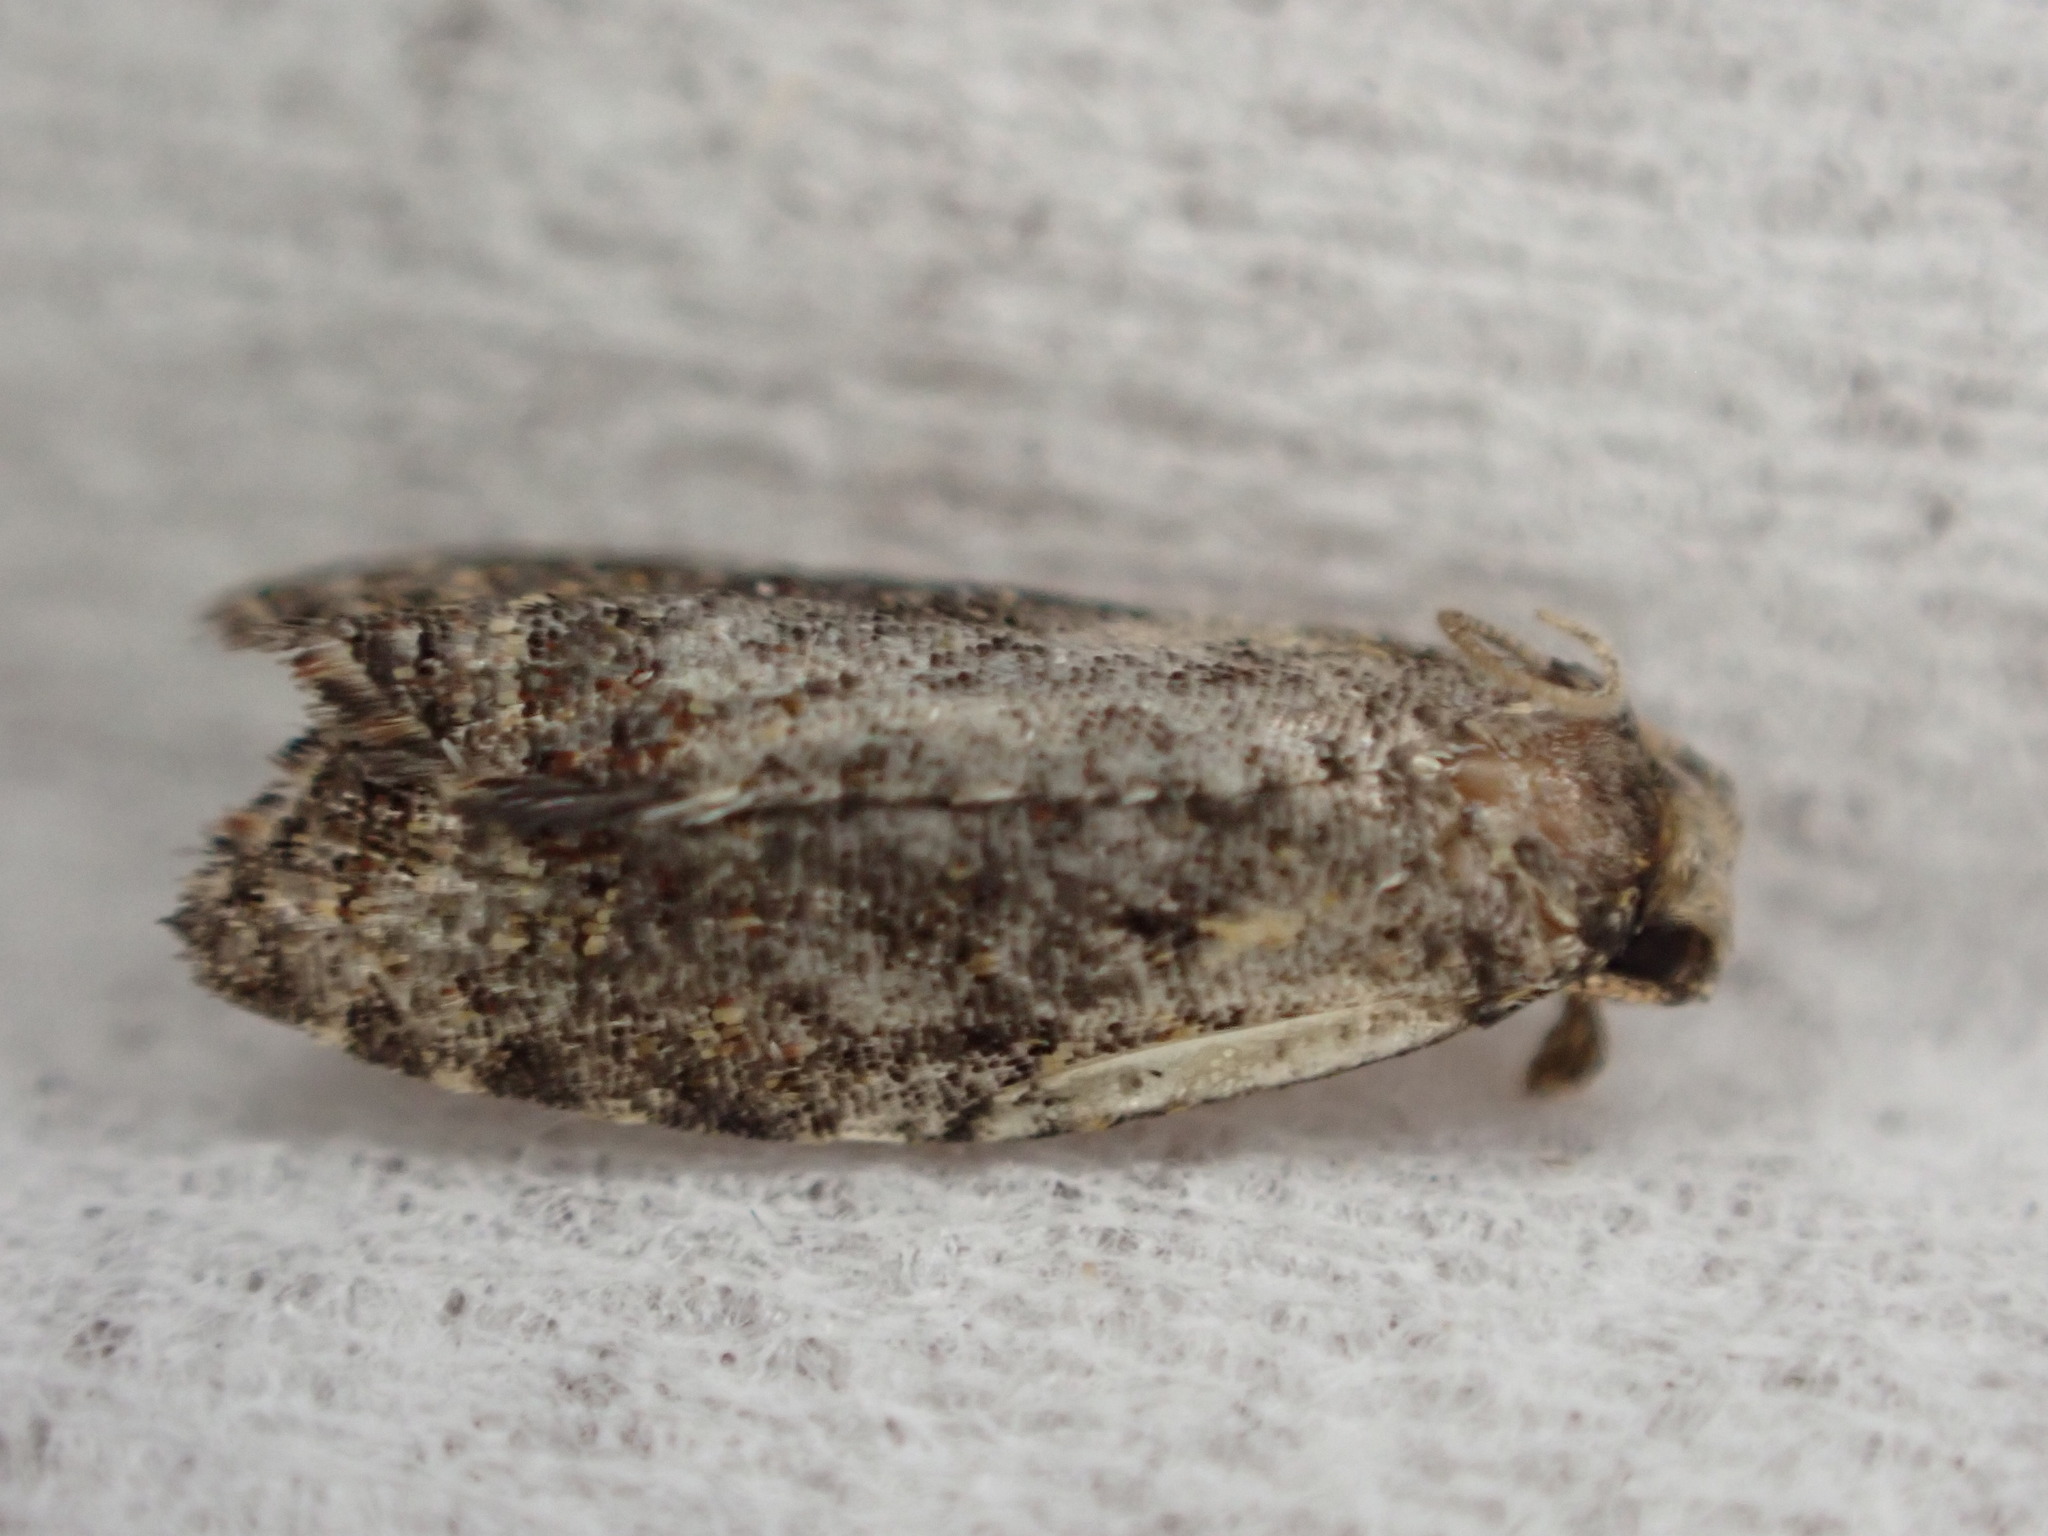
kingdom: Animalia
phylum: Arthropoda
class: Insecta
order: Lepidoptera
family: Tortricidae
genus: Capua
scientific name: Capua intractana
